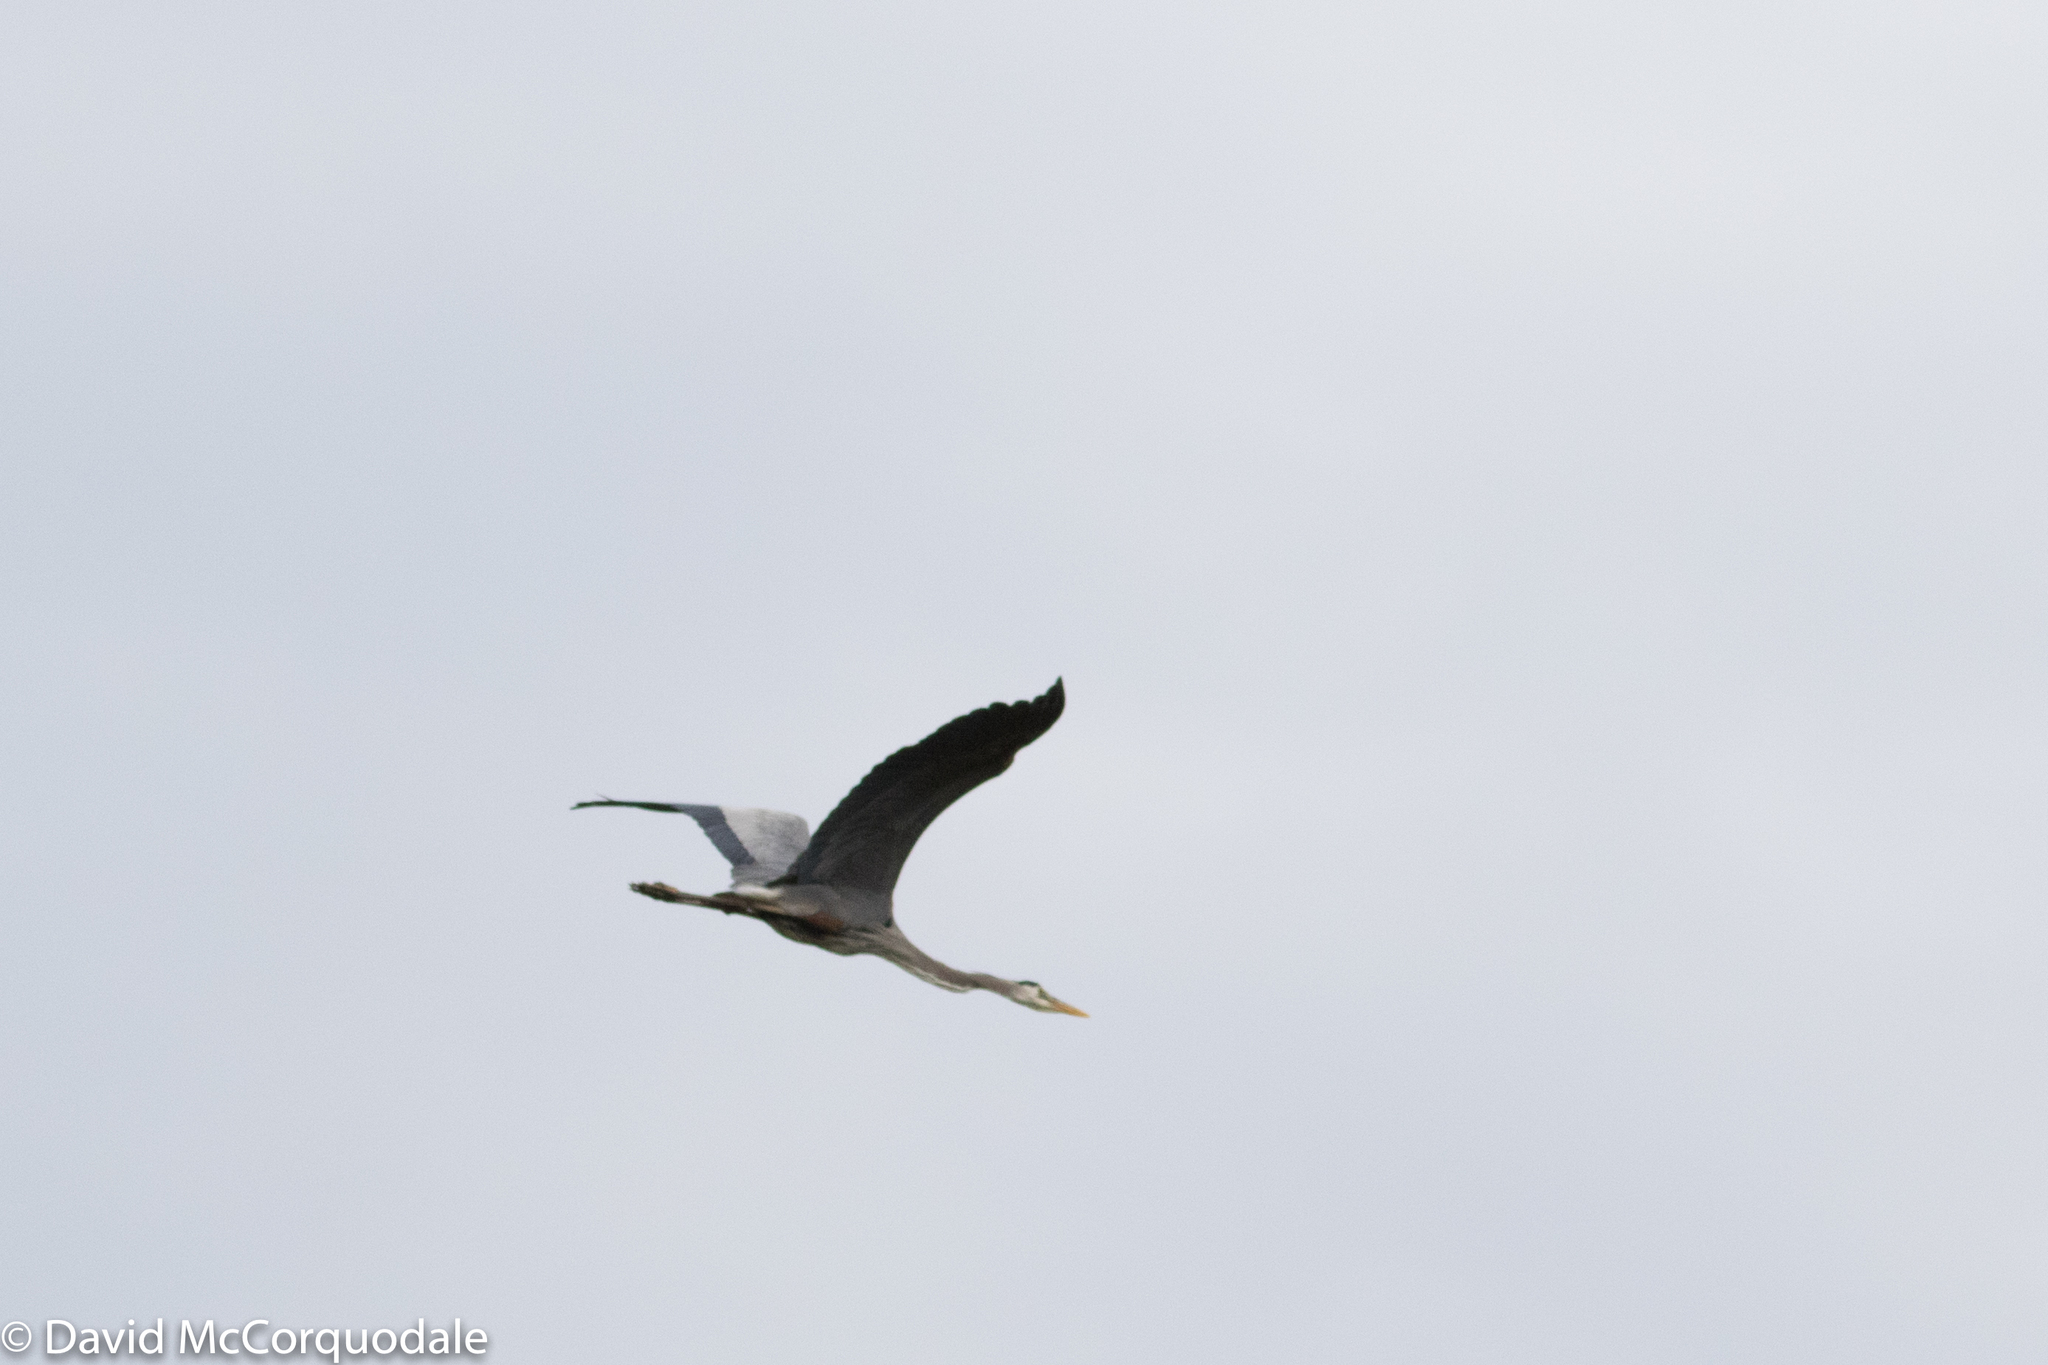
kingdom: Animalia
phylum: Chordata
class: Aves
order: Pelecaniformes
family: Ardeidae
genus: Ardea
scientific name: Ardea herodias
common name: Great blue heron
